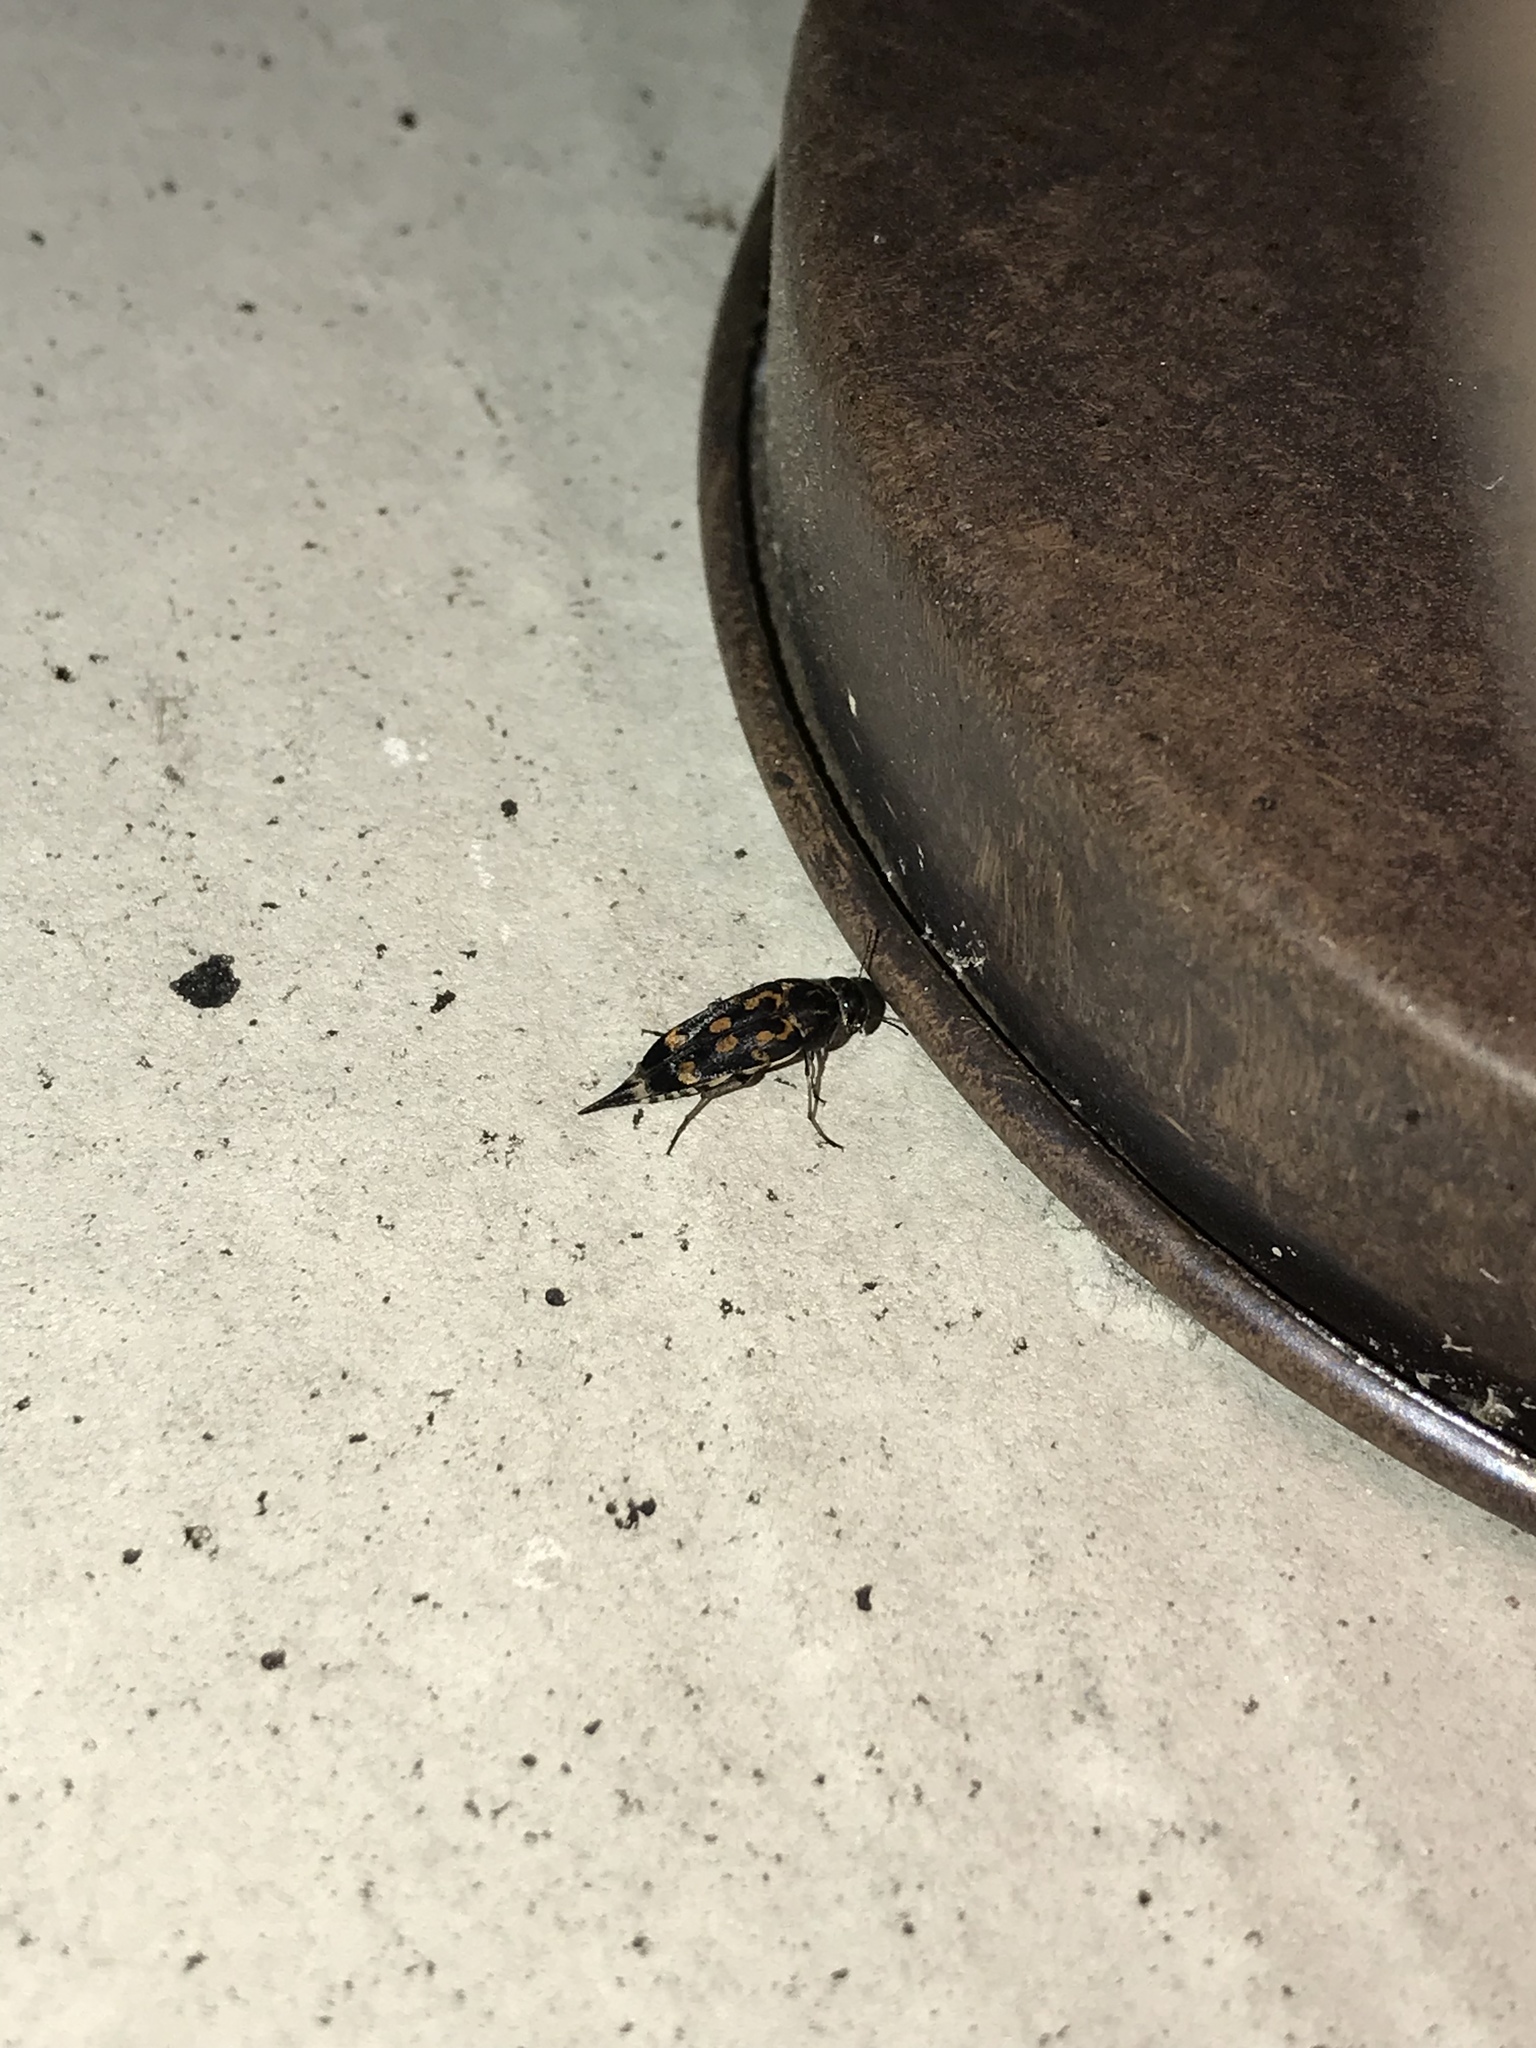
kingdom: Animalia
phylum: Arthropoda
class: Insecta
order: Coleoptera
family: Mordellidae
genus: Hoshihananomia
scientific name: Hoshihananomia octopunctata
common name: Eight-spotted tumbling flower beetle
